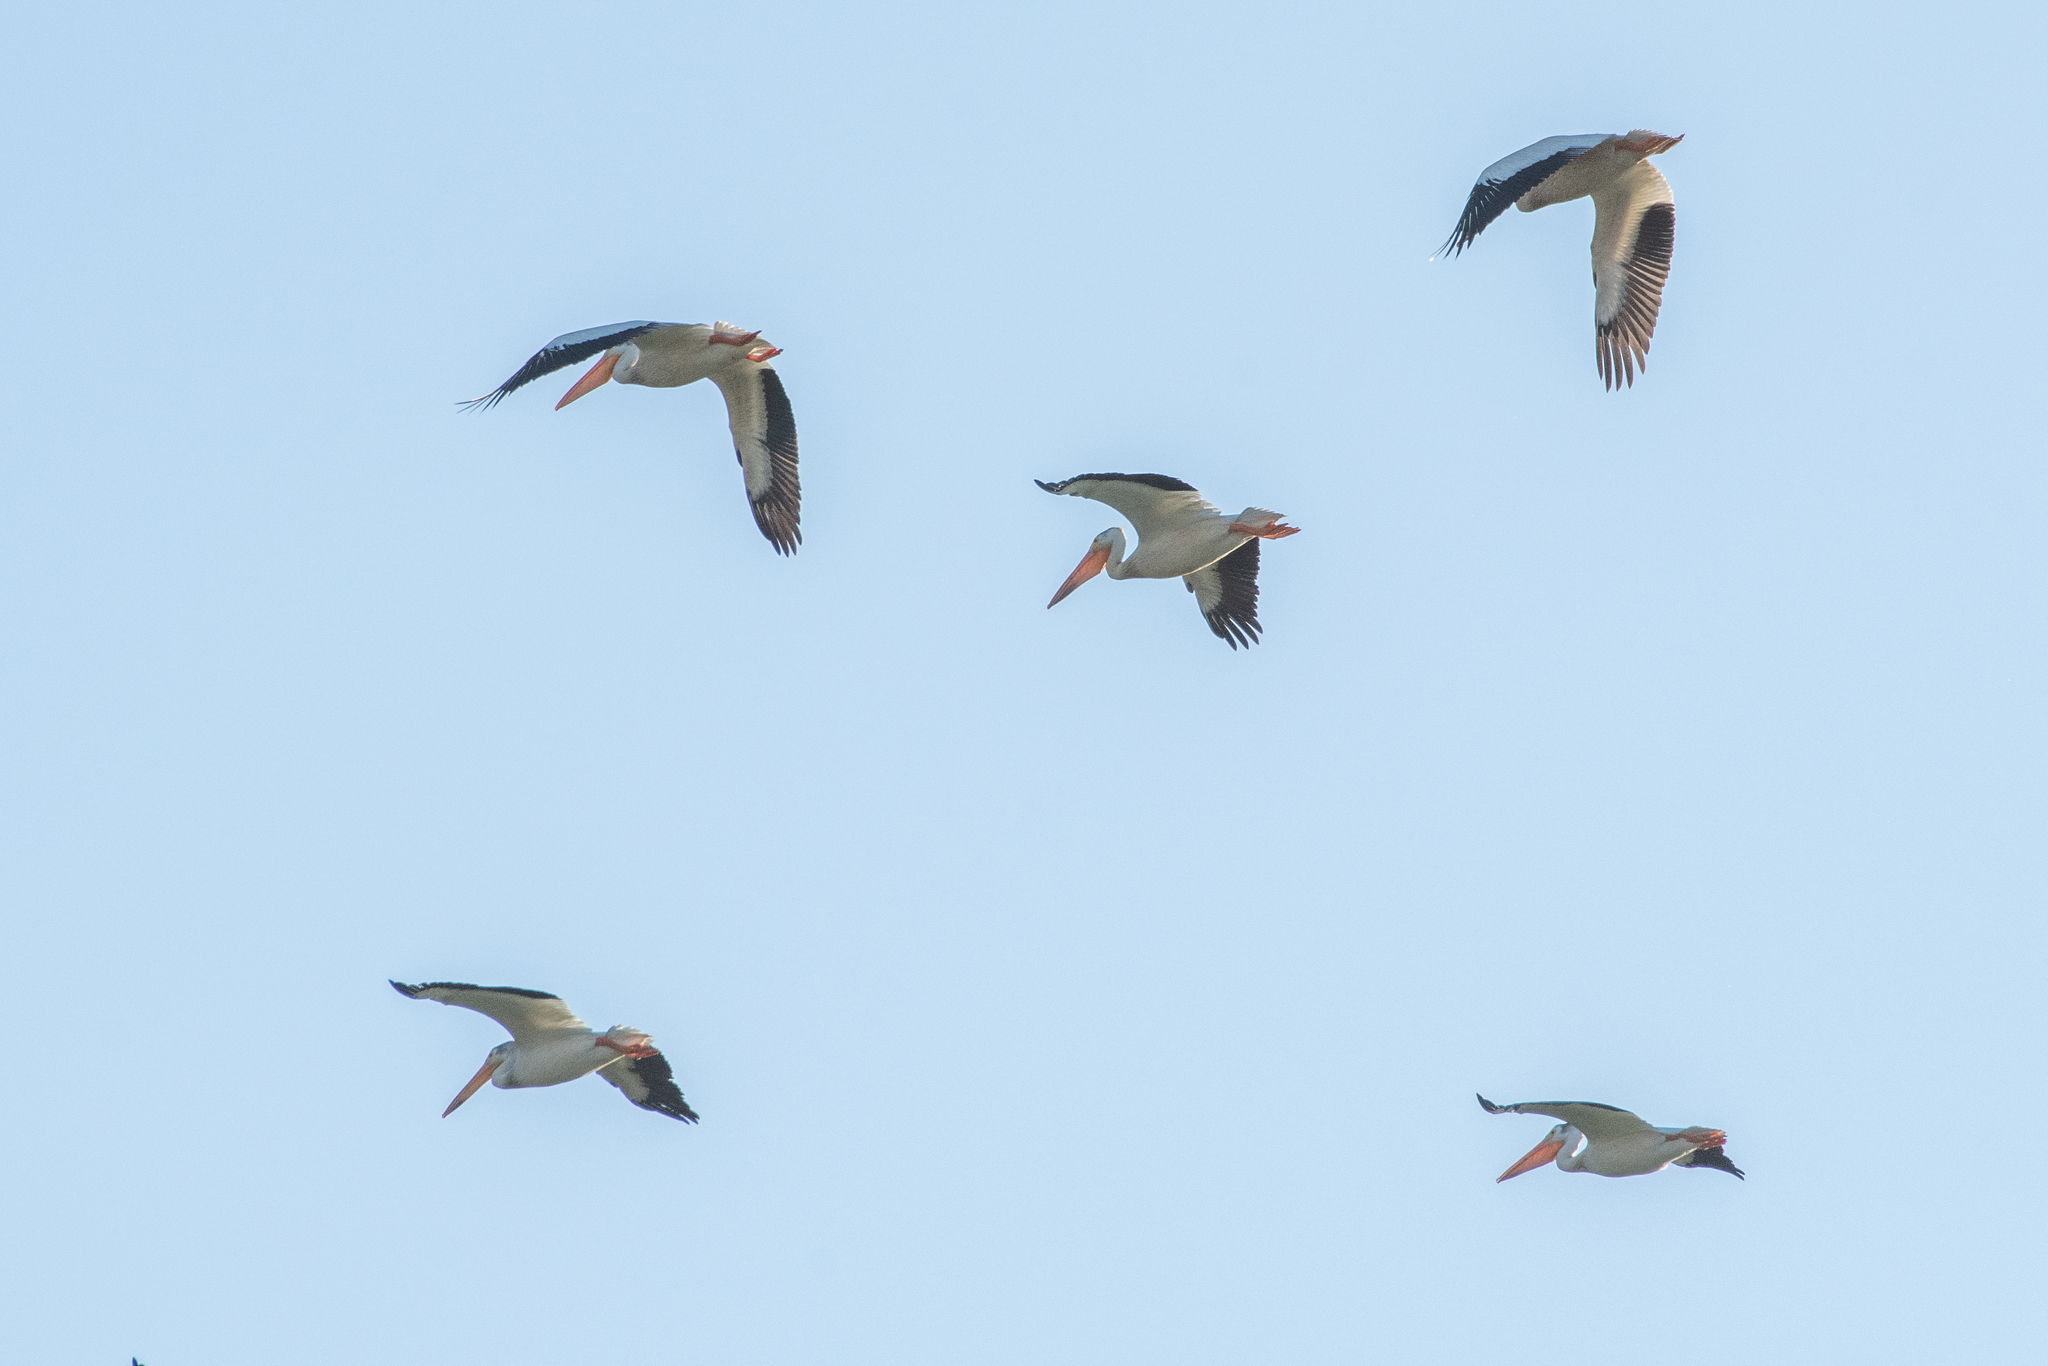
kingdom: Animalia
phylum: Chordata
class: Aves
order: Pelecaniformes
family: Pelecanidae
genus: Pelecanus
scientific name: Pelecanus erythrorhynchos
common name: American white pelican
